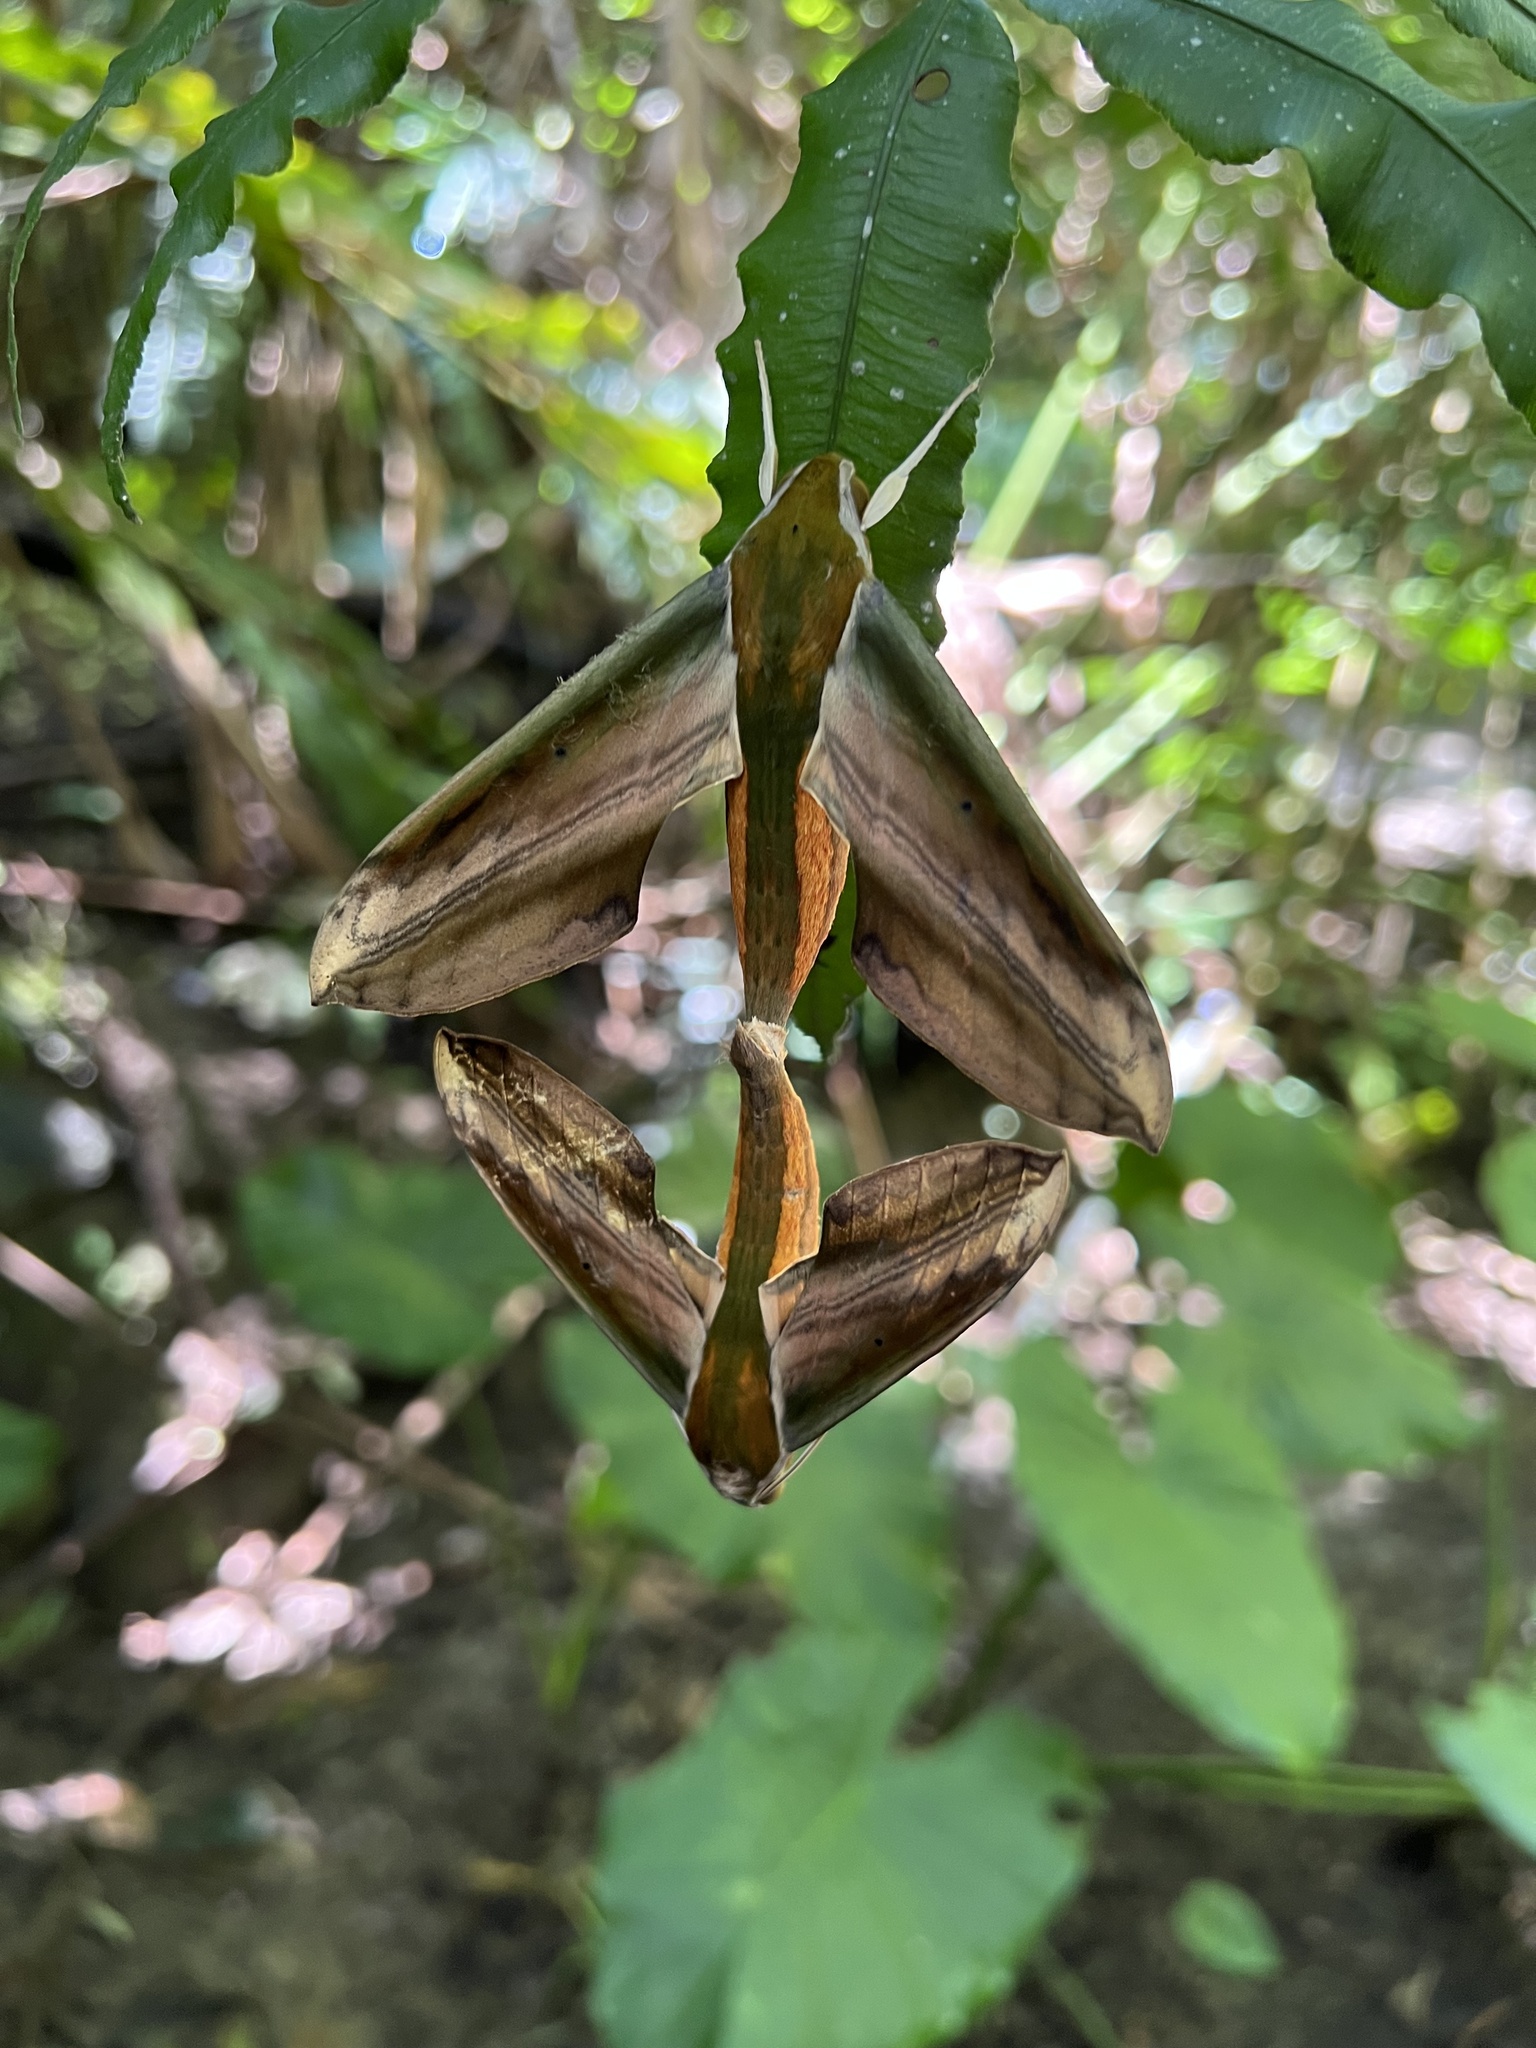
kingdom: Animalia
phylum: Arthropoda
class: Insecta
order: Lepidoptera
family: Sphingidae
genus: Theretra
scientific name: Theretra nessus
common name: Yam hawk moth
